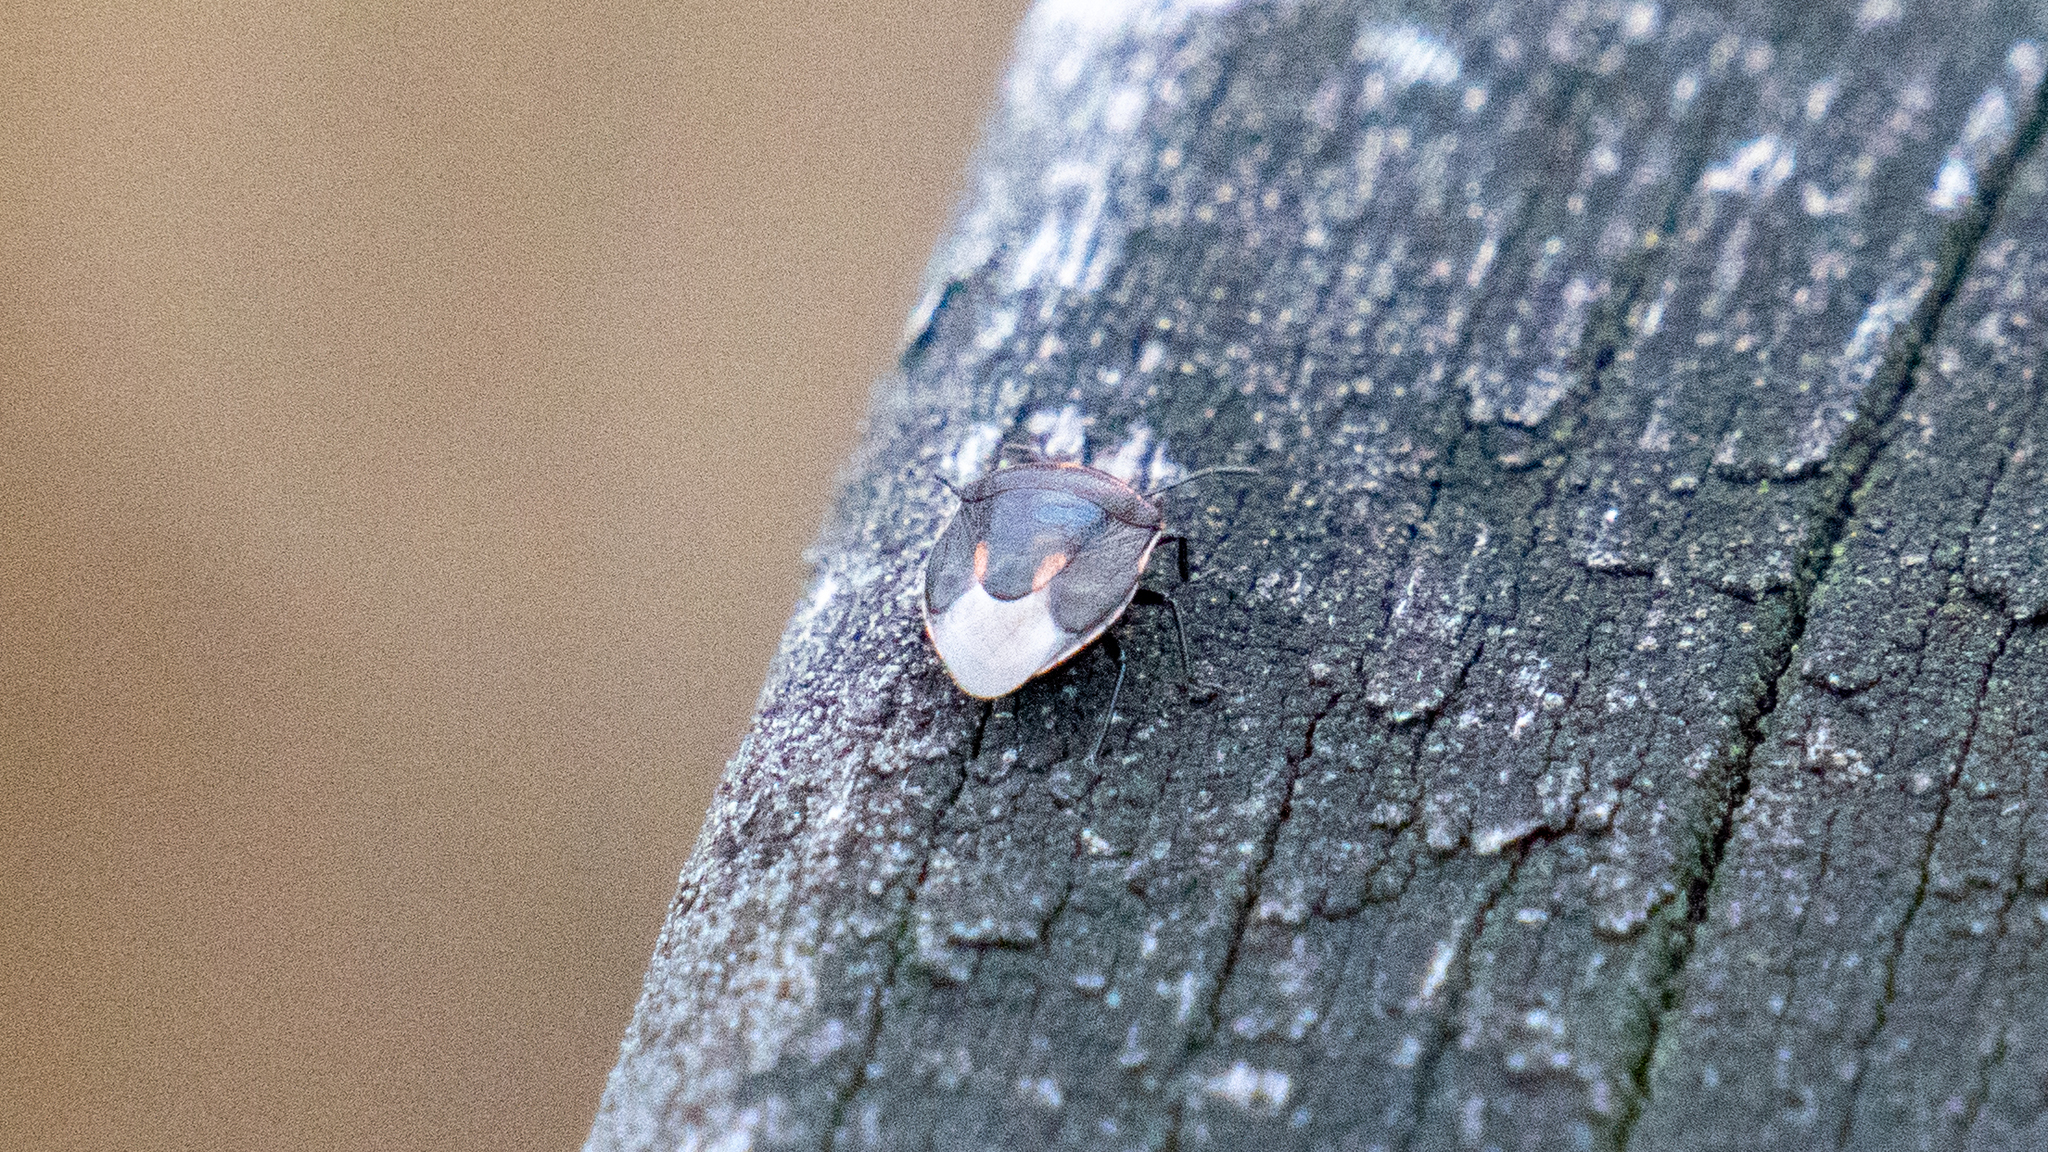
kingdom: Animalia
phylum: Arthropoda
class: Insecta
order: Hemiptera
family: Pentatomidae
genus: Cosmopepla
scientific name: Cosmopepla lintneriana
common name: Twice-stabbed stink bug
